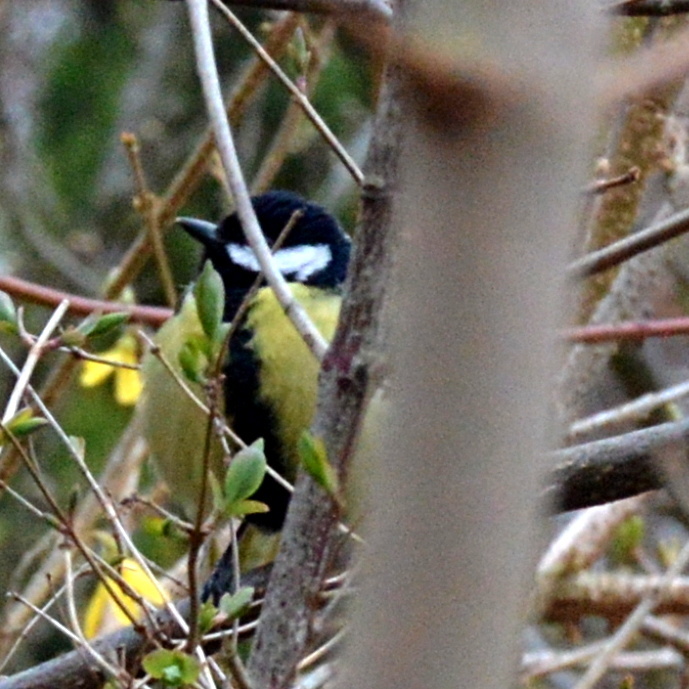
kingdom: Animalia
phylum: Chordata
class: Aves
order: Passeriformes
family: Paridae
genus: Parus
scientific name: Parus major
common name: Great tit
